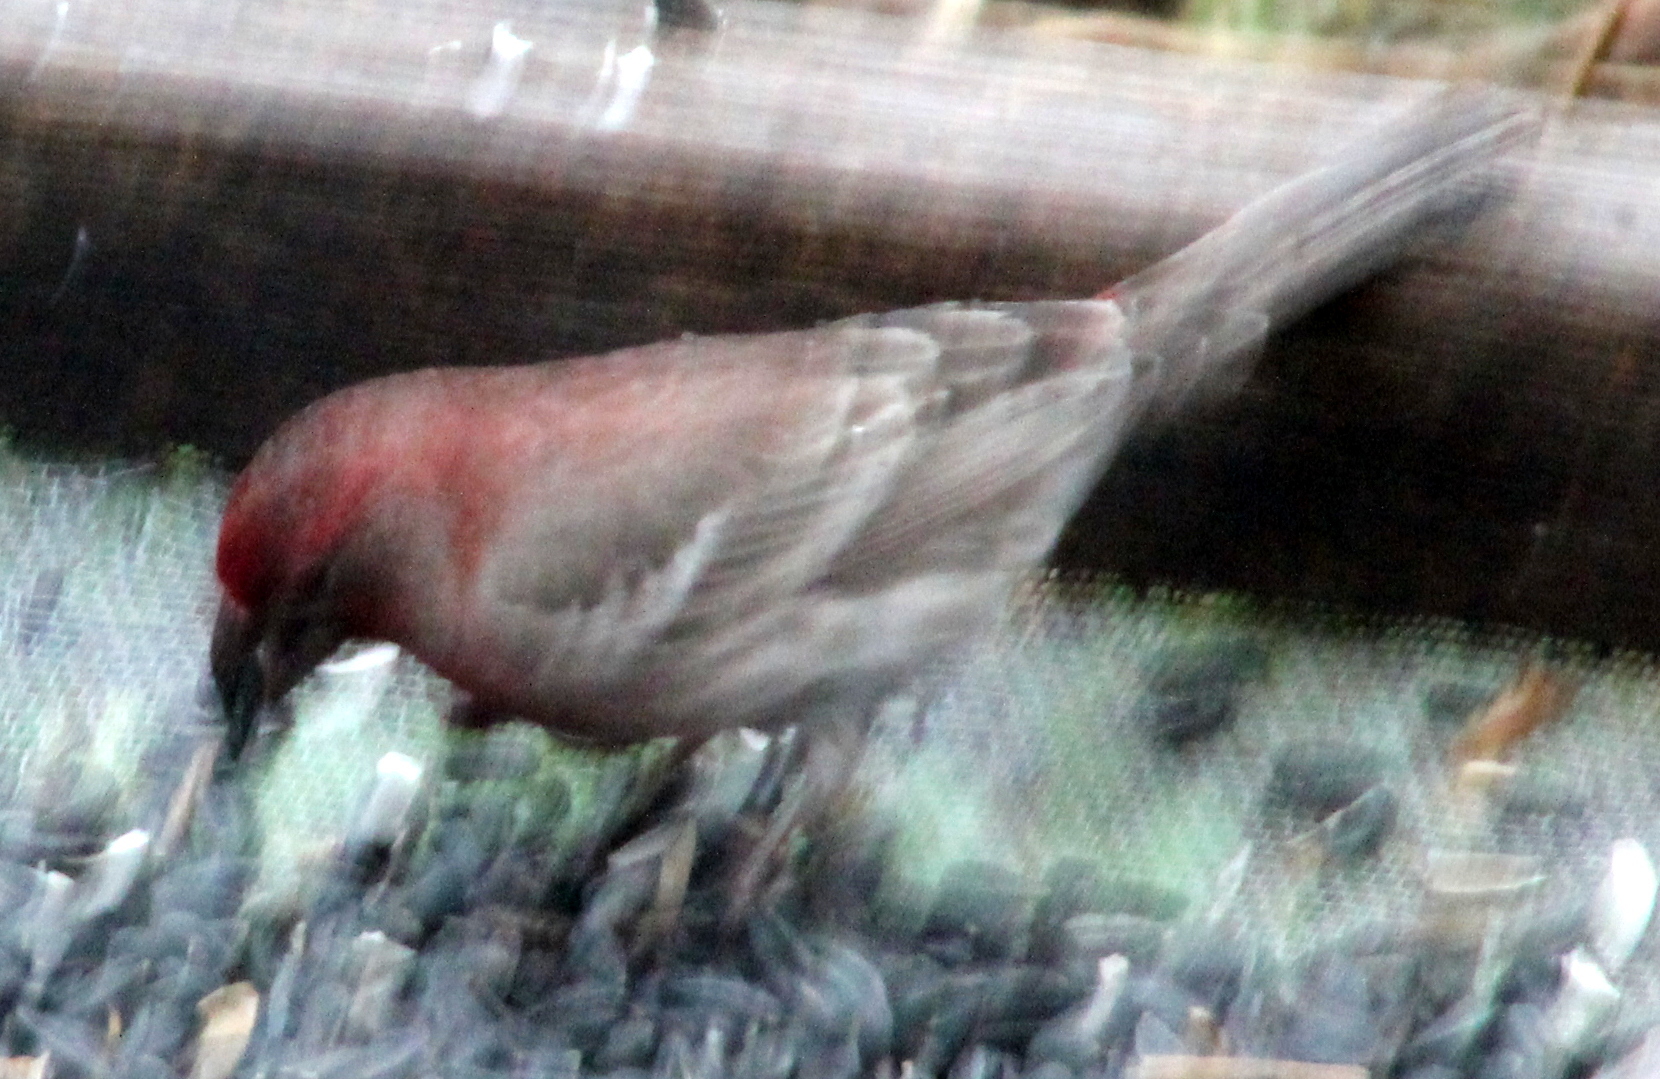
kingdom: Animalia
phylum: Chordata
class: Aves
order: Passeriformes
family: Fringillidae
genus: Haemorhous
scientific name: Haemorhous mexicanus
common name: House finch
